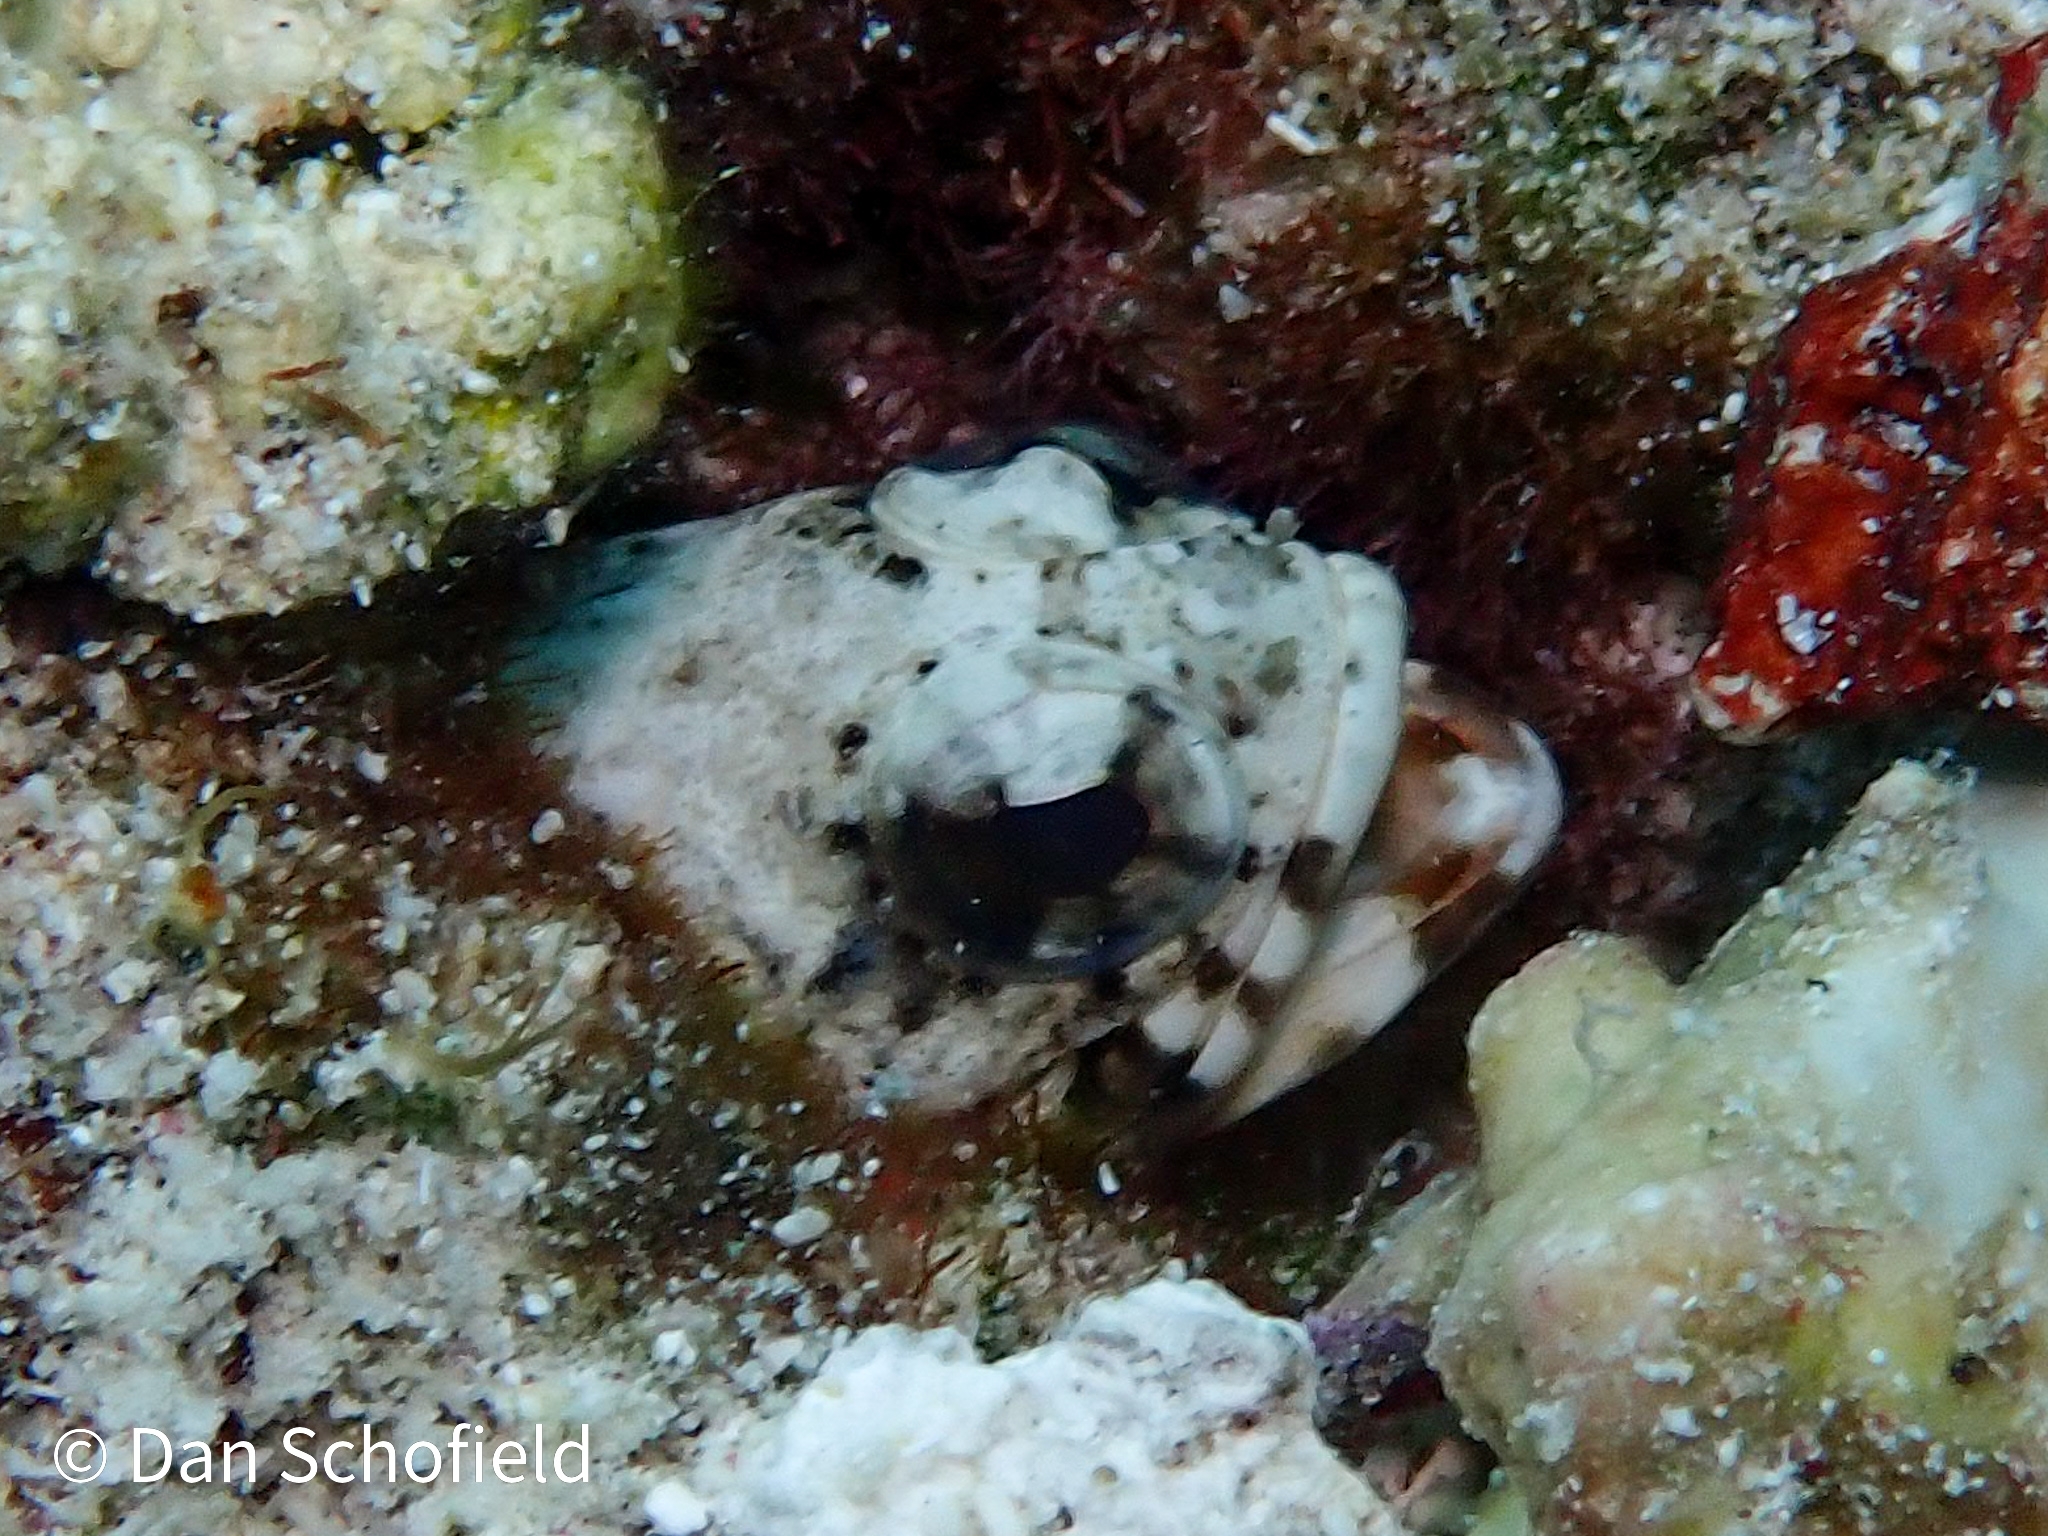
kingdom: Animalia
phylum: Chordata
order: Perciformes
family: Opistognathidae
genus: Opistognathus
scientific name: Opistognathus maxillosus
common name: Mottled jawfish
